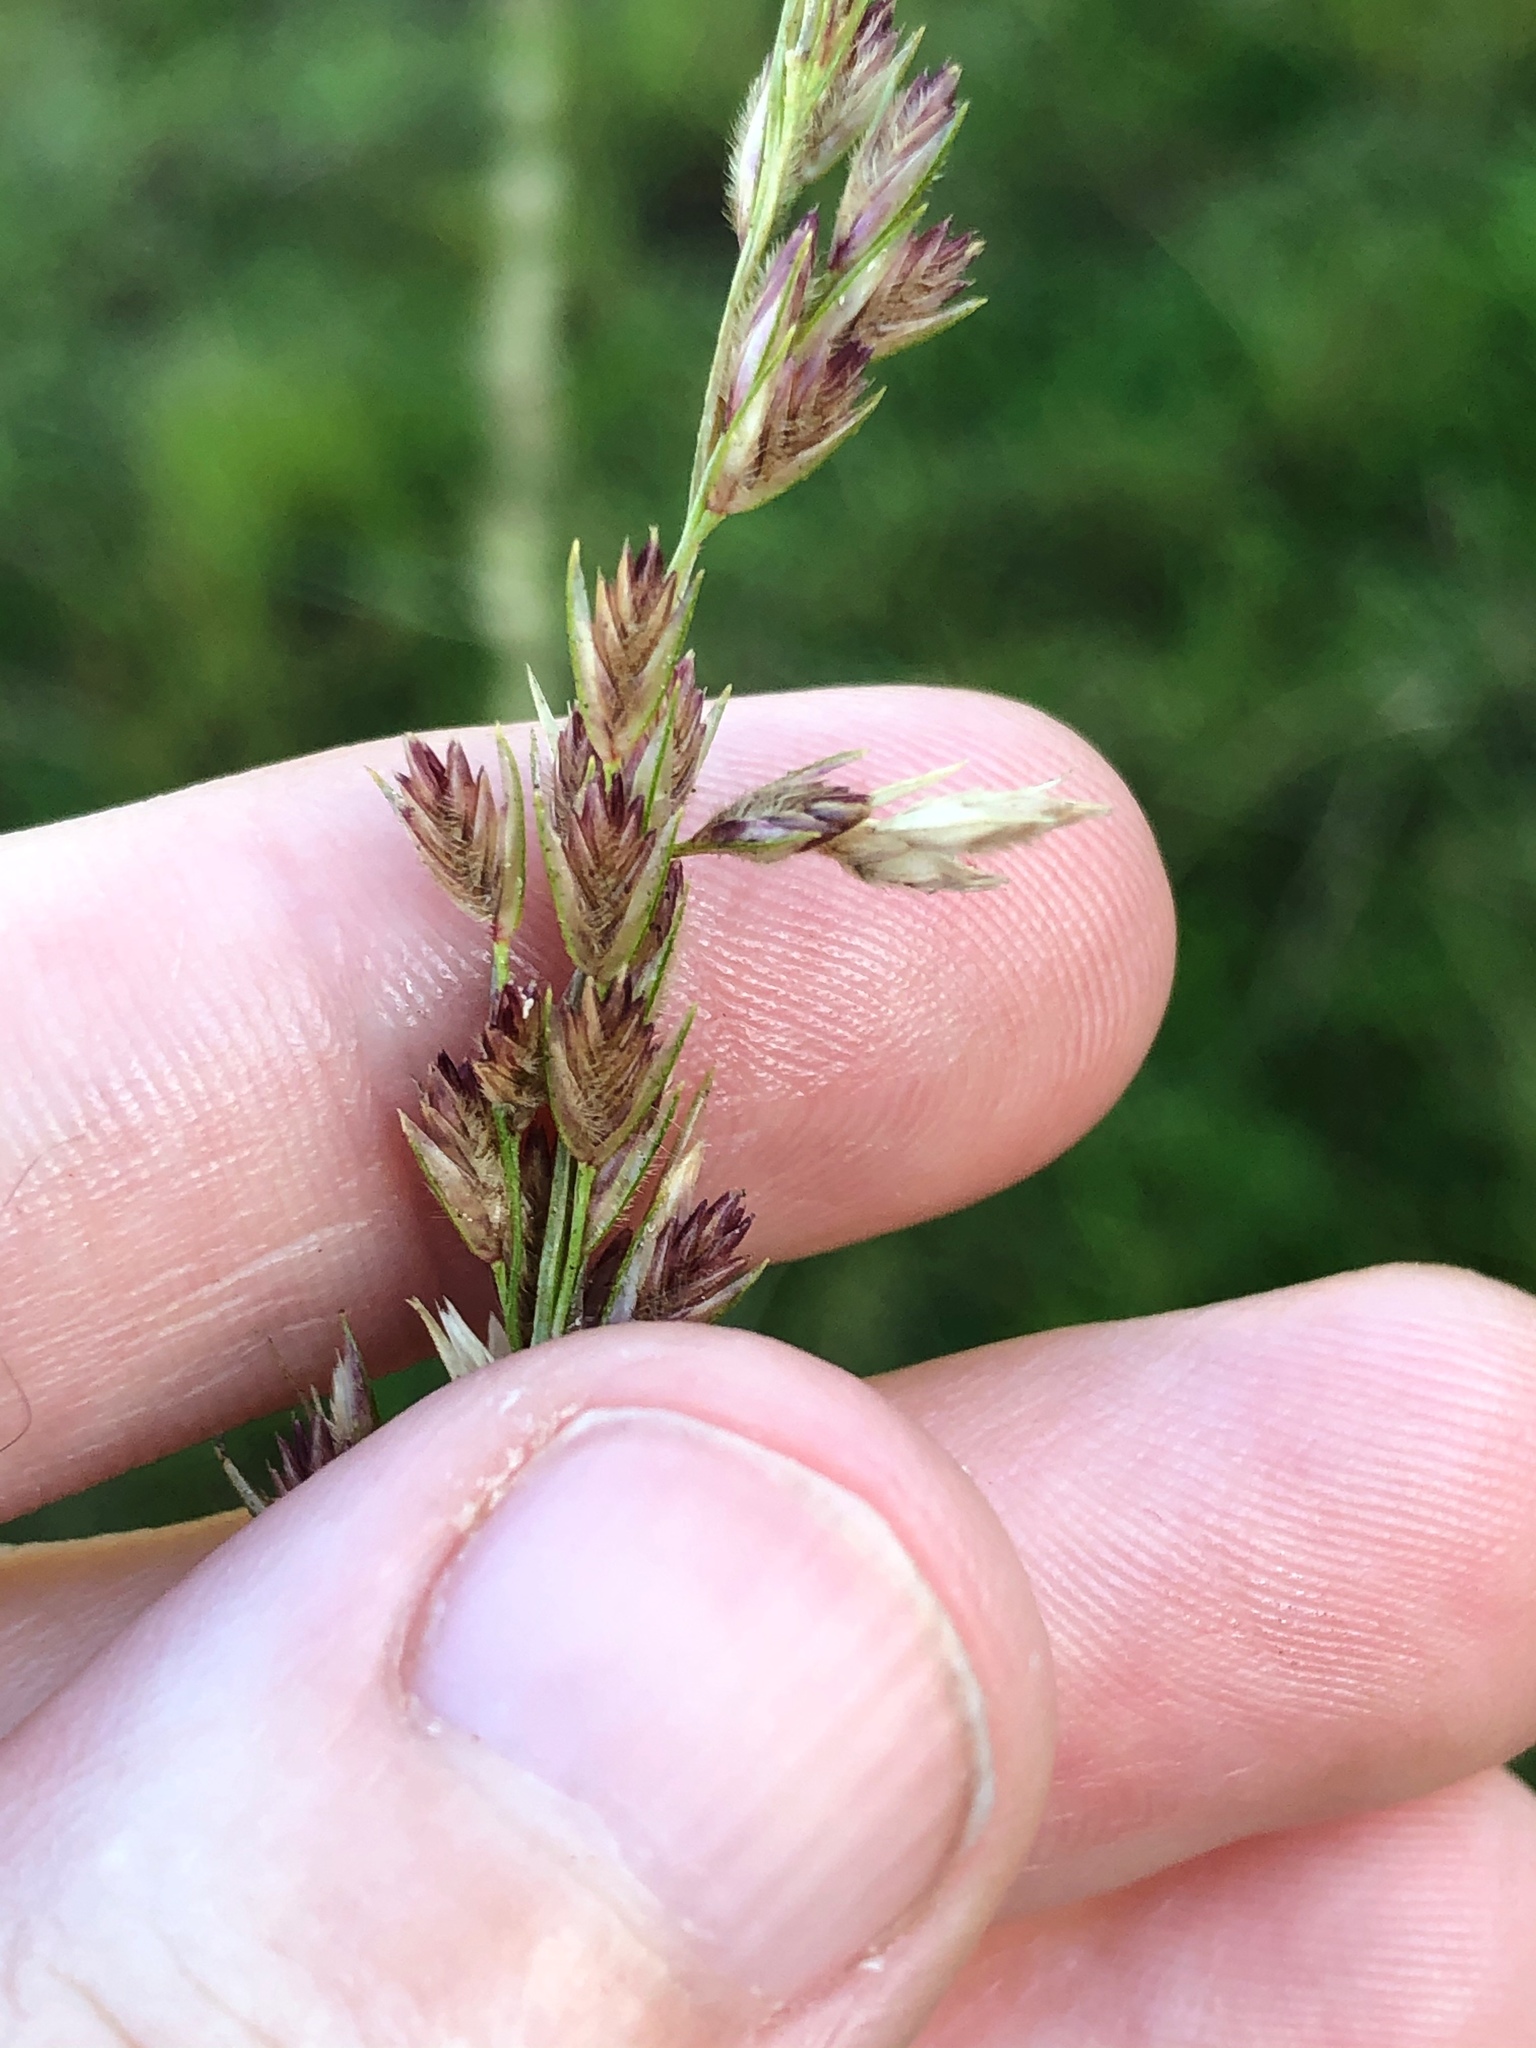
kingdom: Plantae
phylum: Tracheophyta
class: Liliopsida
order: Poales
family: Poaceae
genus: Tridens
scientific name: Tridens strictus
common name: Long-spike tridens
